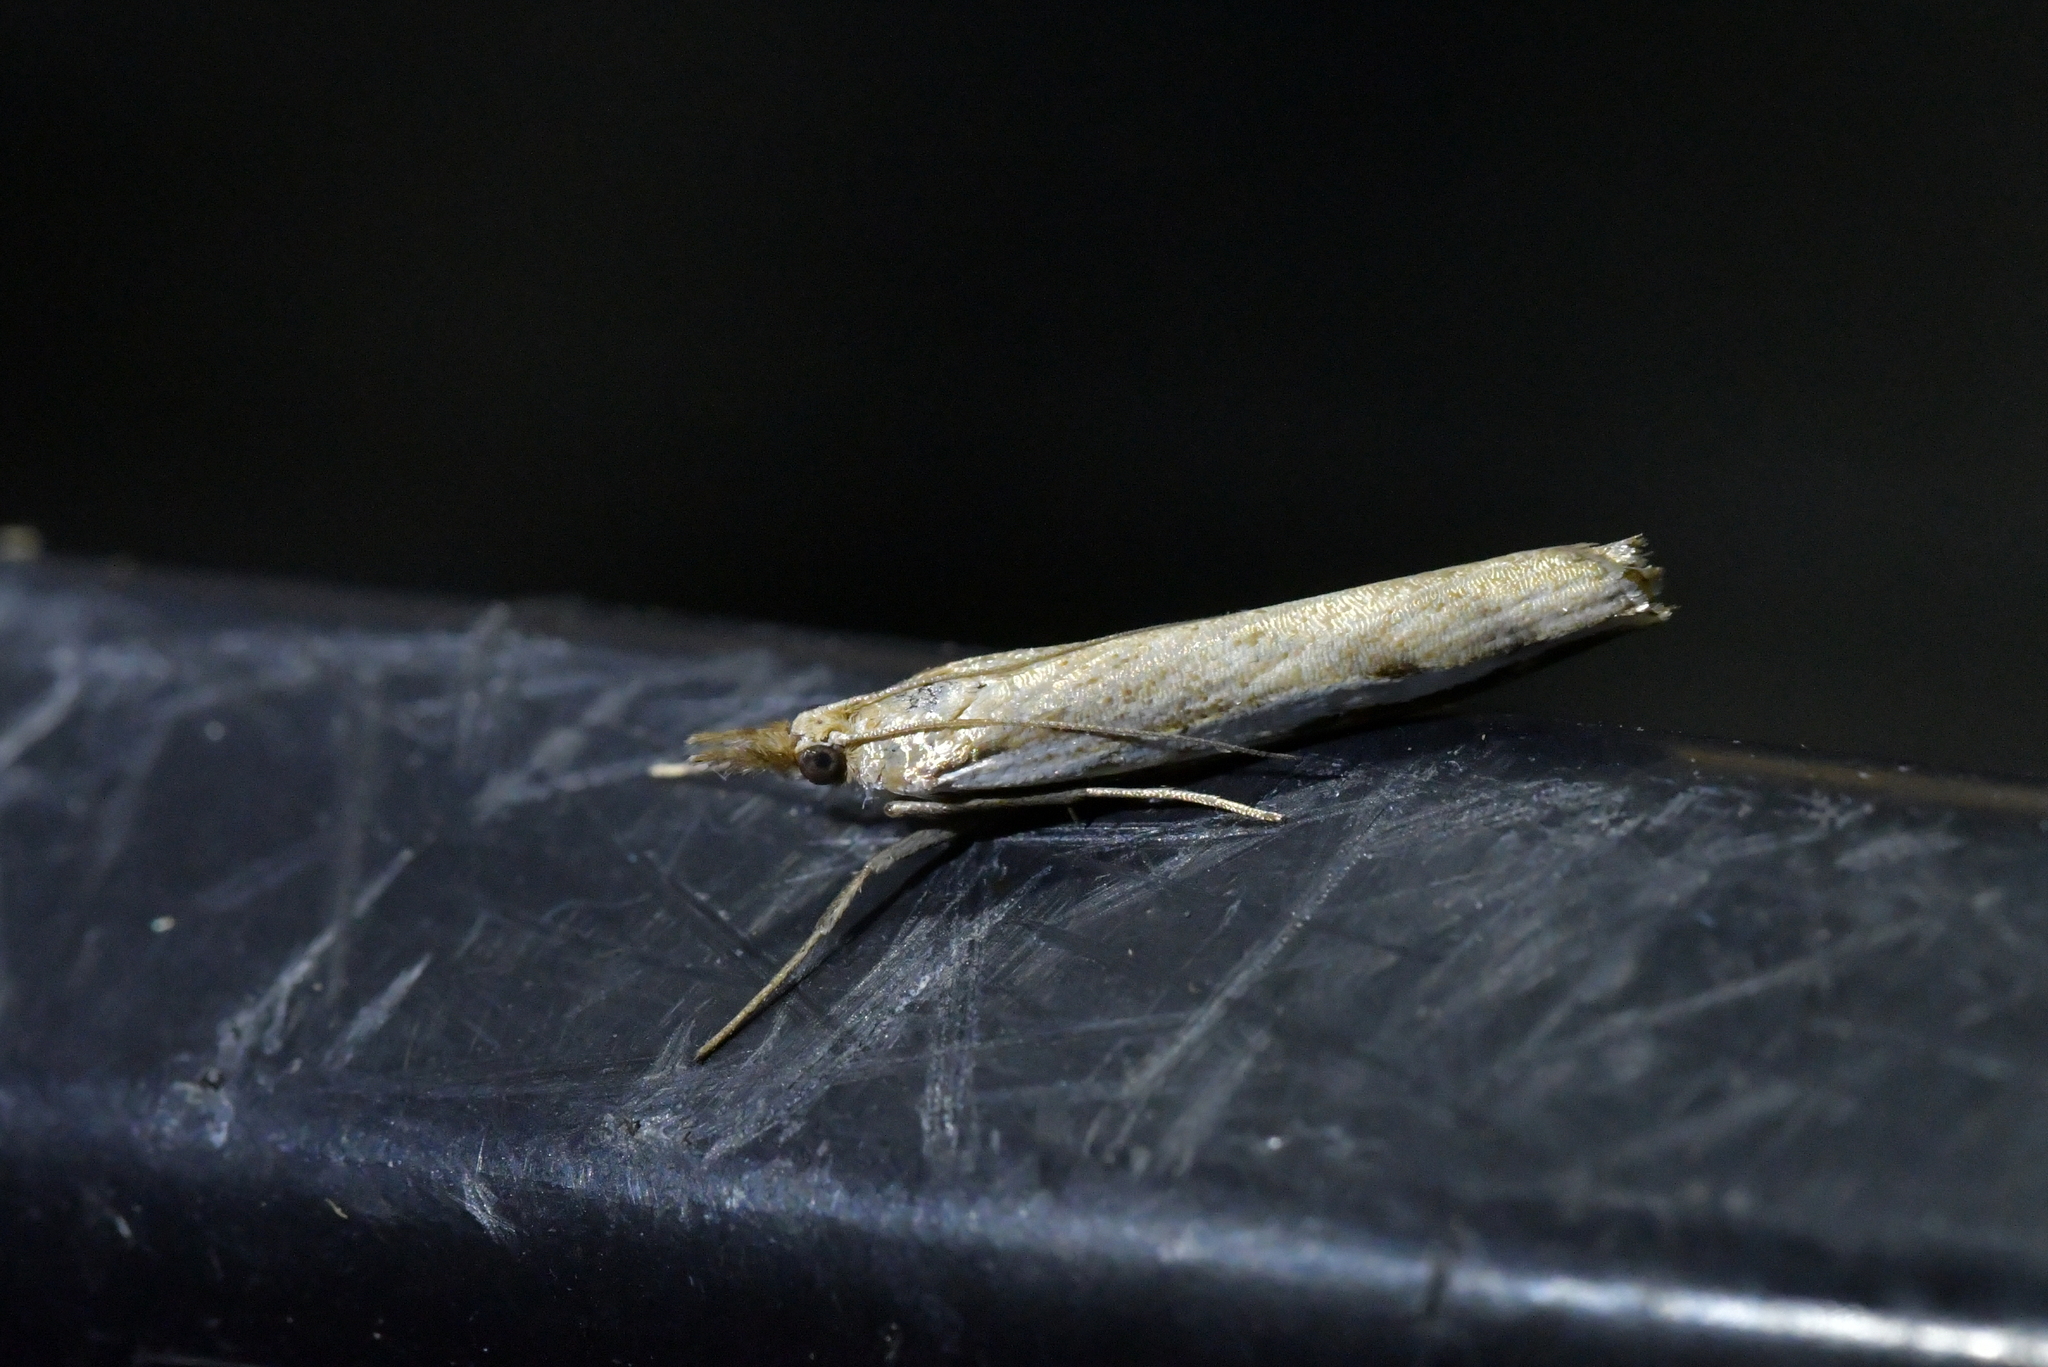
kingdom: Animalia
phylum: Arthropoda
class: Insecta
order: Lepidoptera
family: Crambidae
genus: Orocrambus
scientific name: Orocrambus flexuosellus
